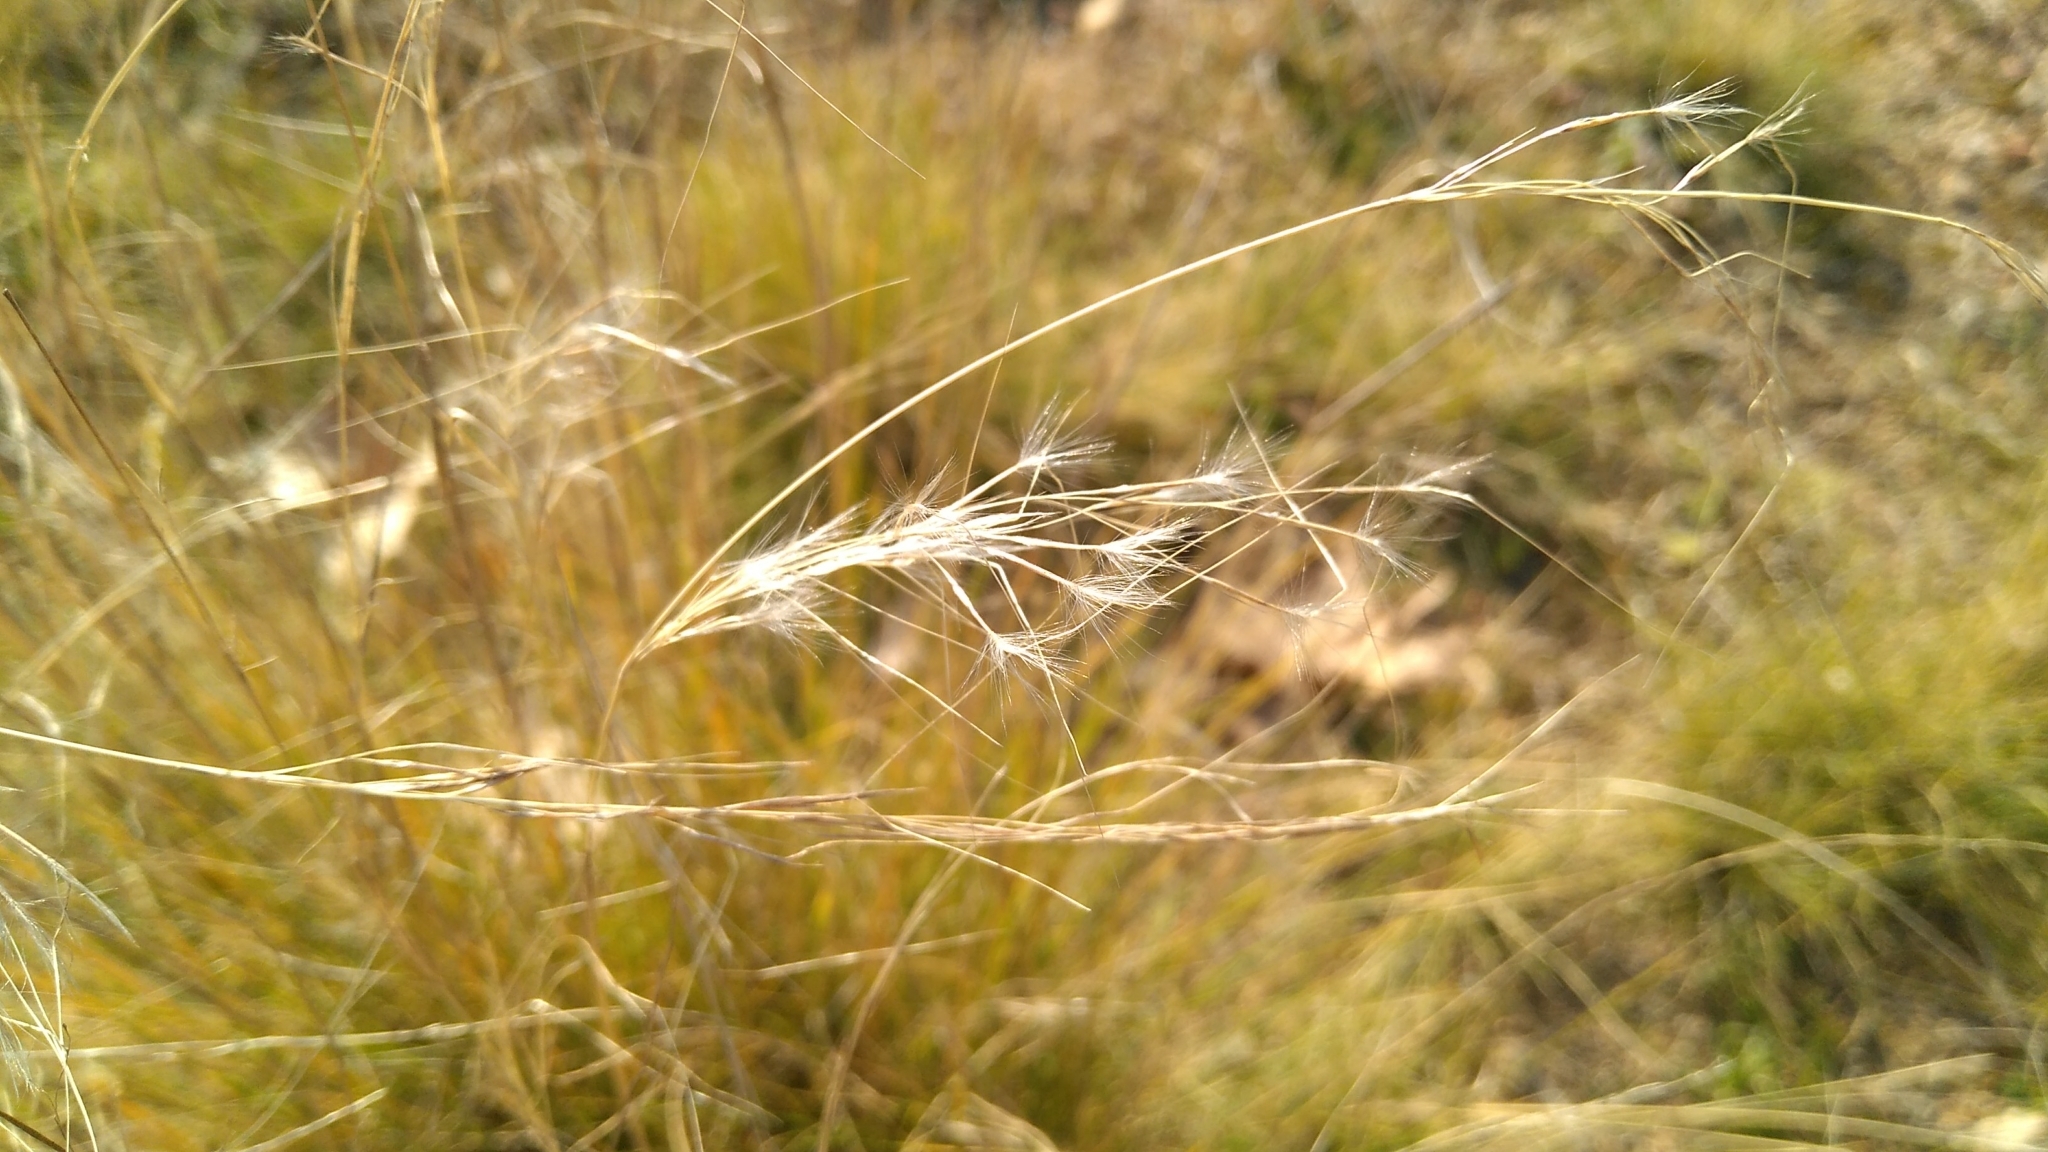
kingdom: Plantae
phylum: Tracheophyta
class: Liliopsida
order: Poales
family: Poaceae
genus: Jarava
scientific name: Jarava plumosa
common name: South american rice grass
